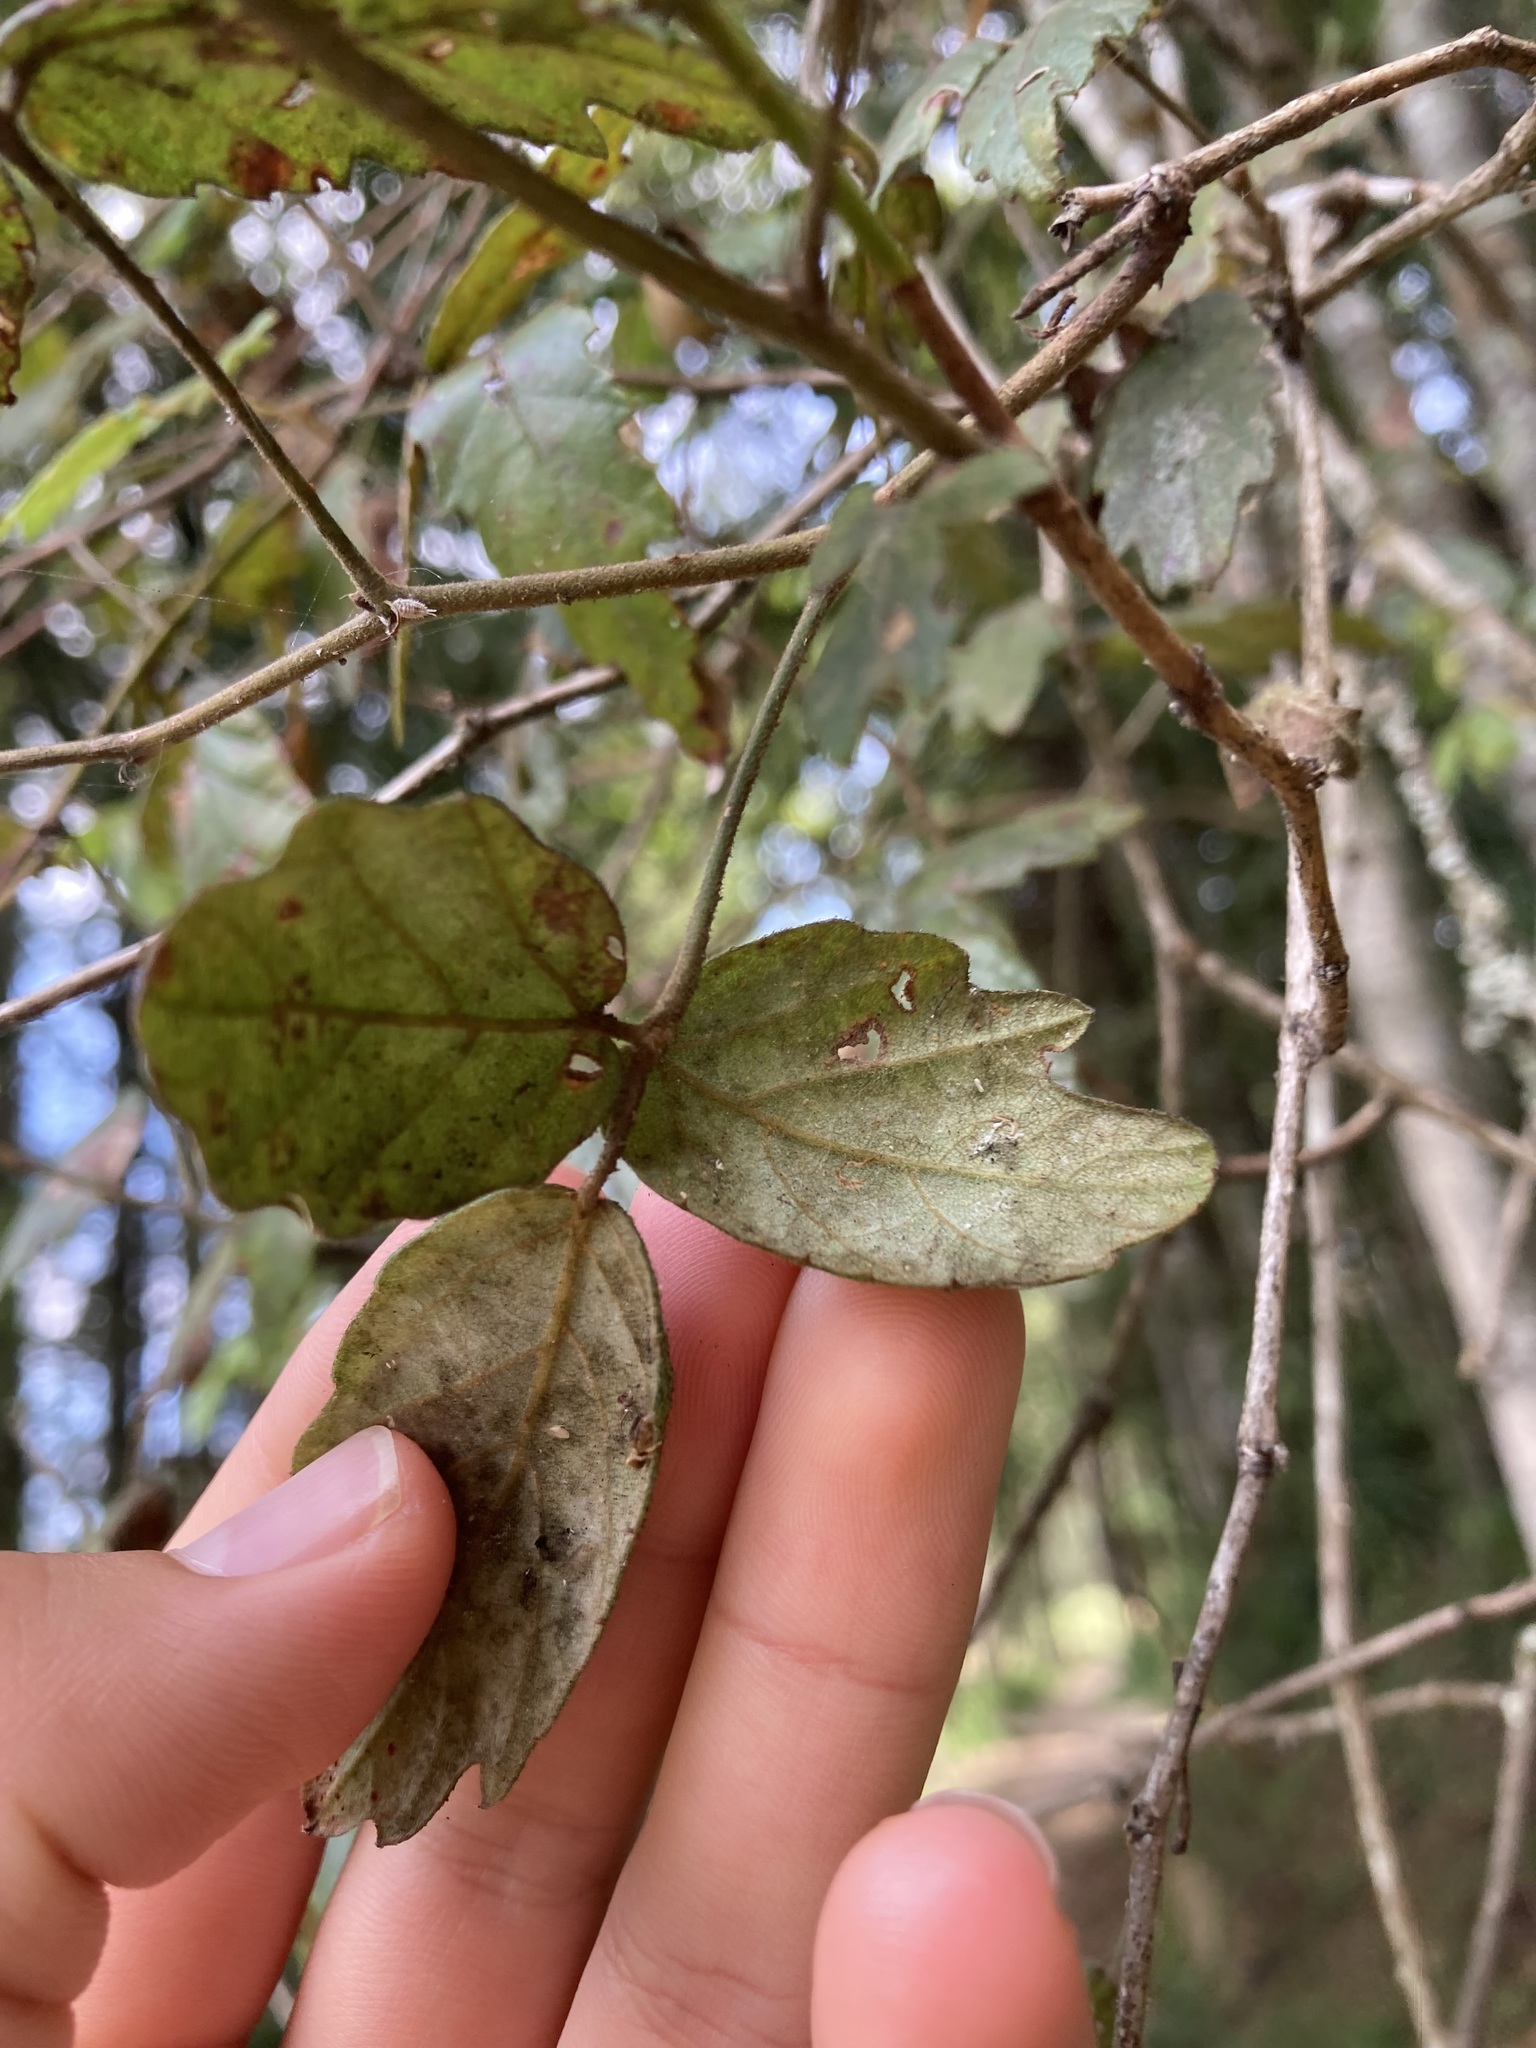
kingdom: Plantae
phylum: Tracheophyta
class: Magnoliopsida
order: Rosales
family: Rosaceae
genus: Rubus
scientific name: Rubus schmidelioides
